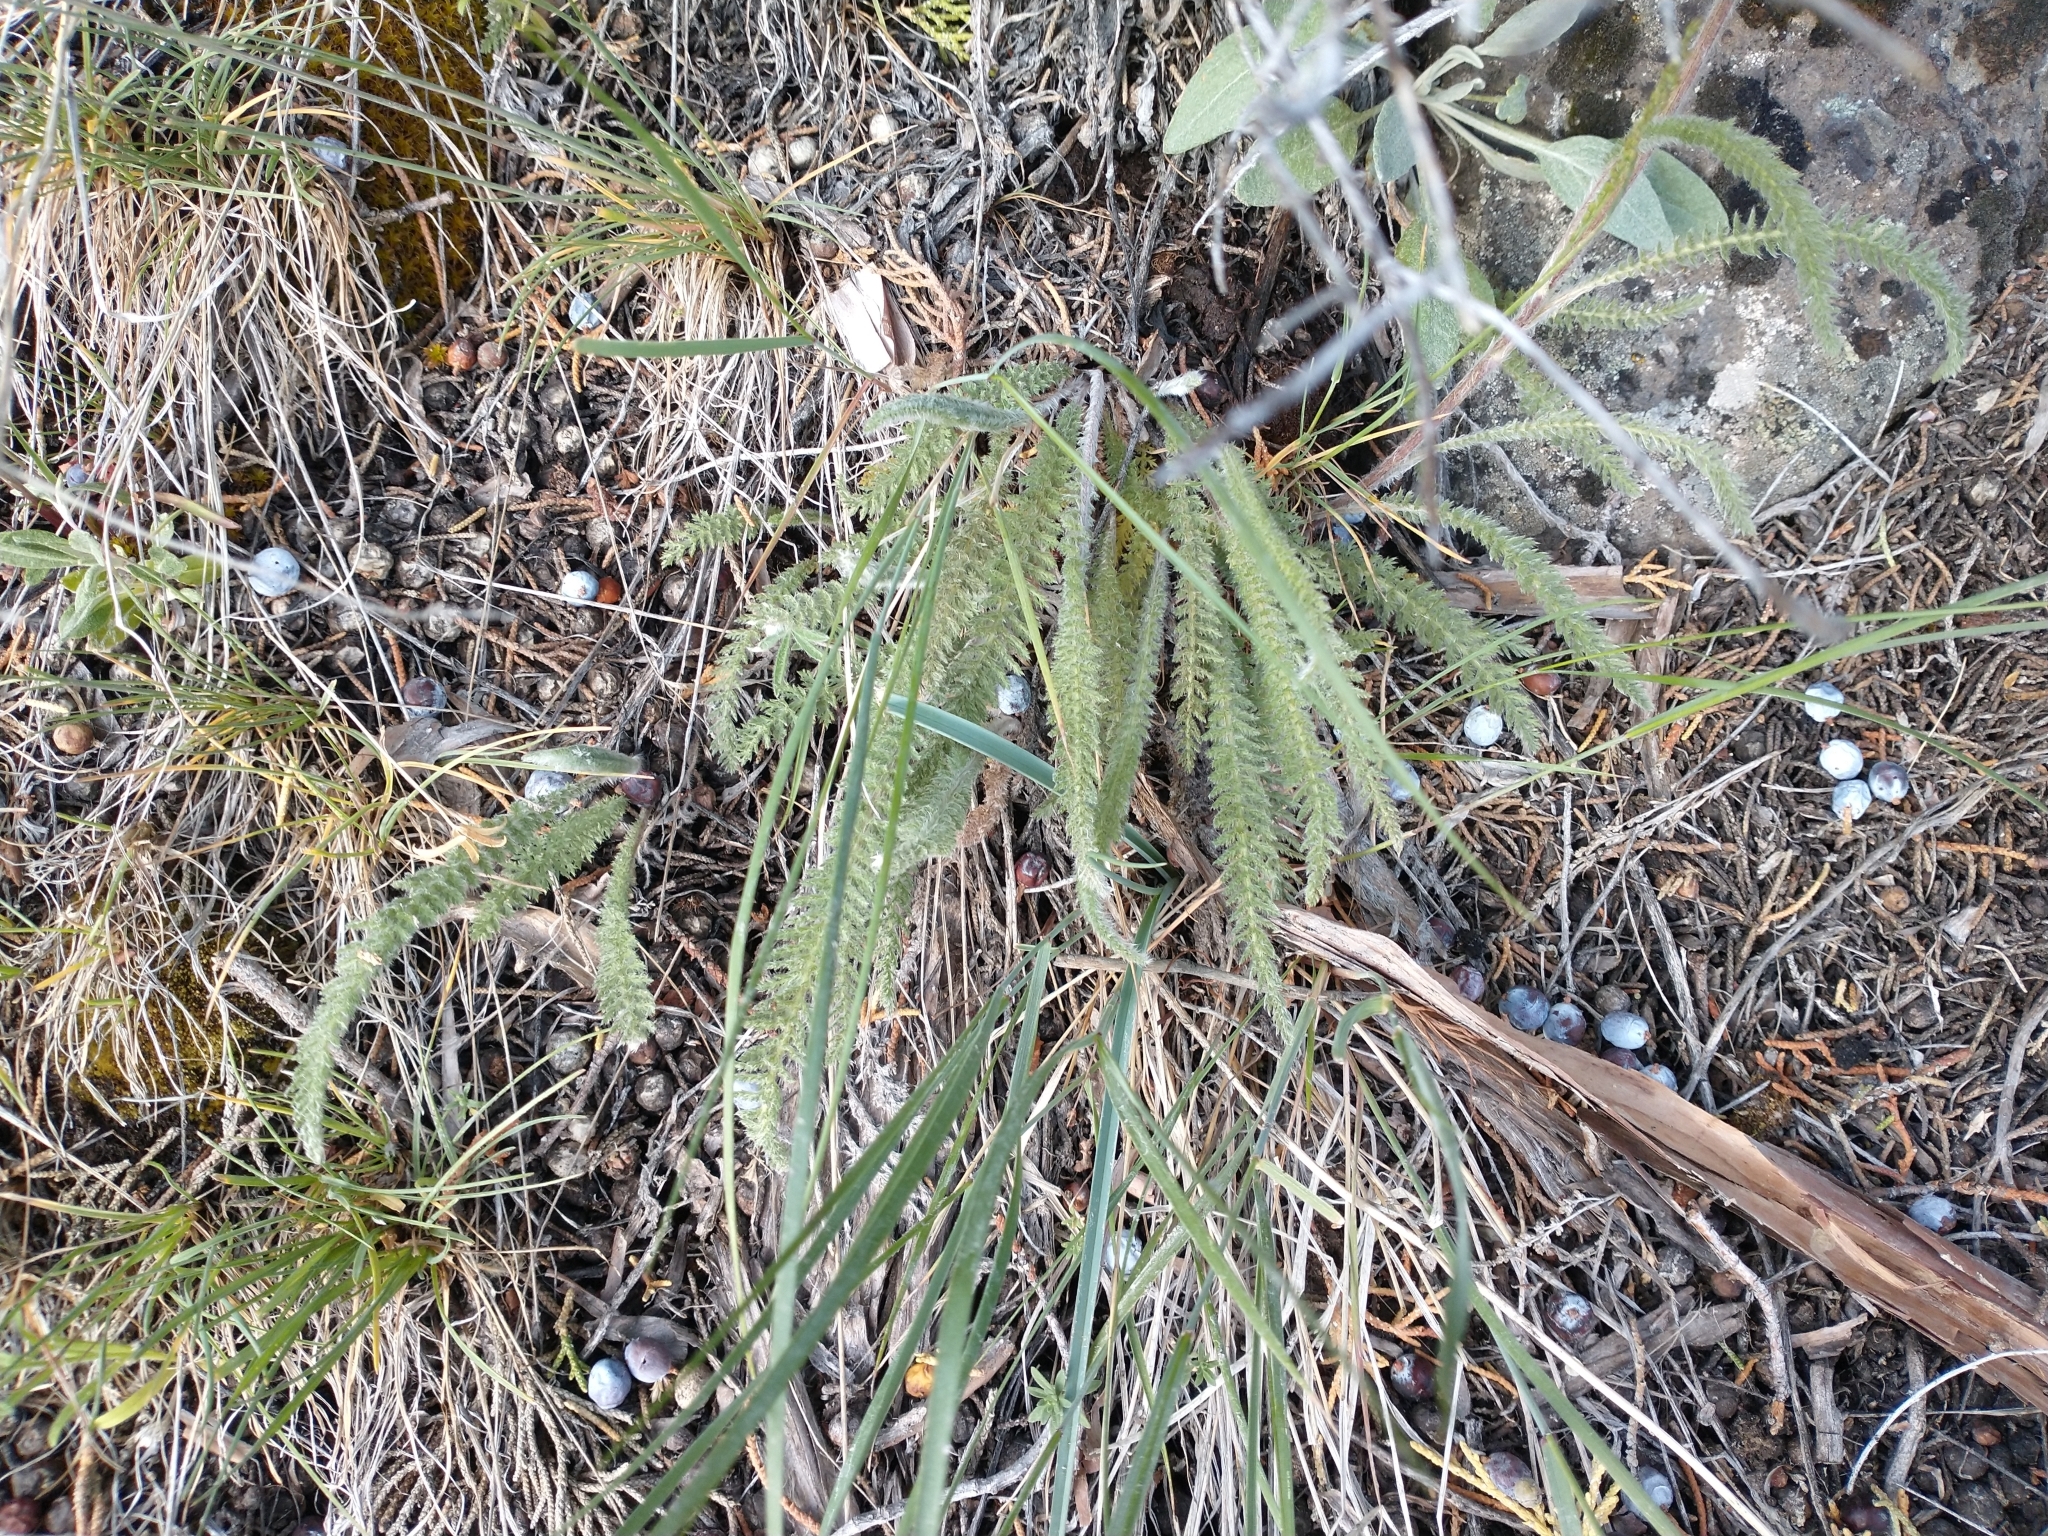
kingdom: Plantae
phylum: Tracheophyta
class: Magnoliopsida
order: Asterales
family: Asteraceae
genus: Achillea
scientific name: Achillea millefolium
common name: Yarrow
